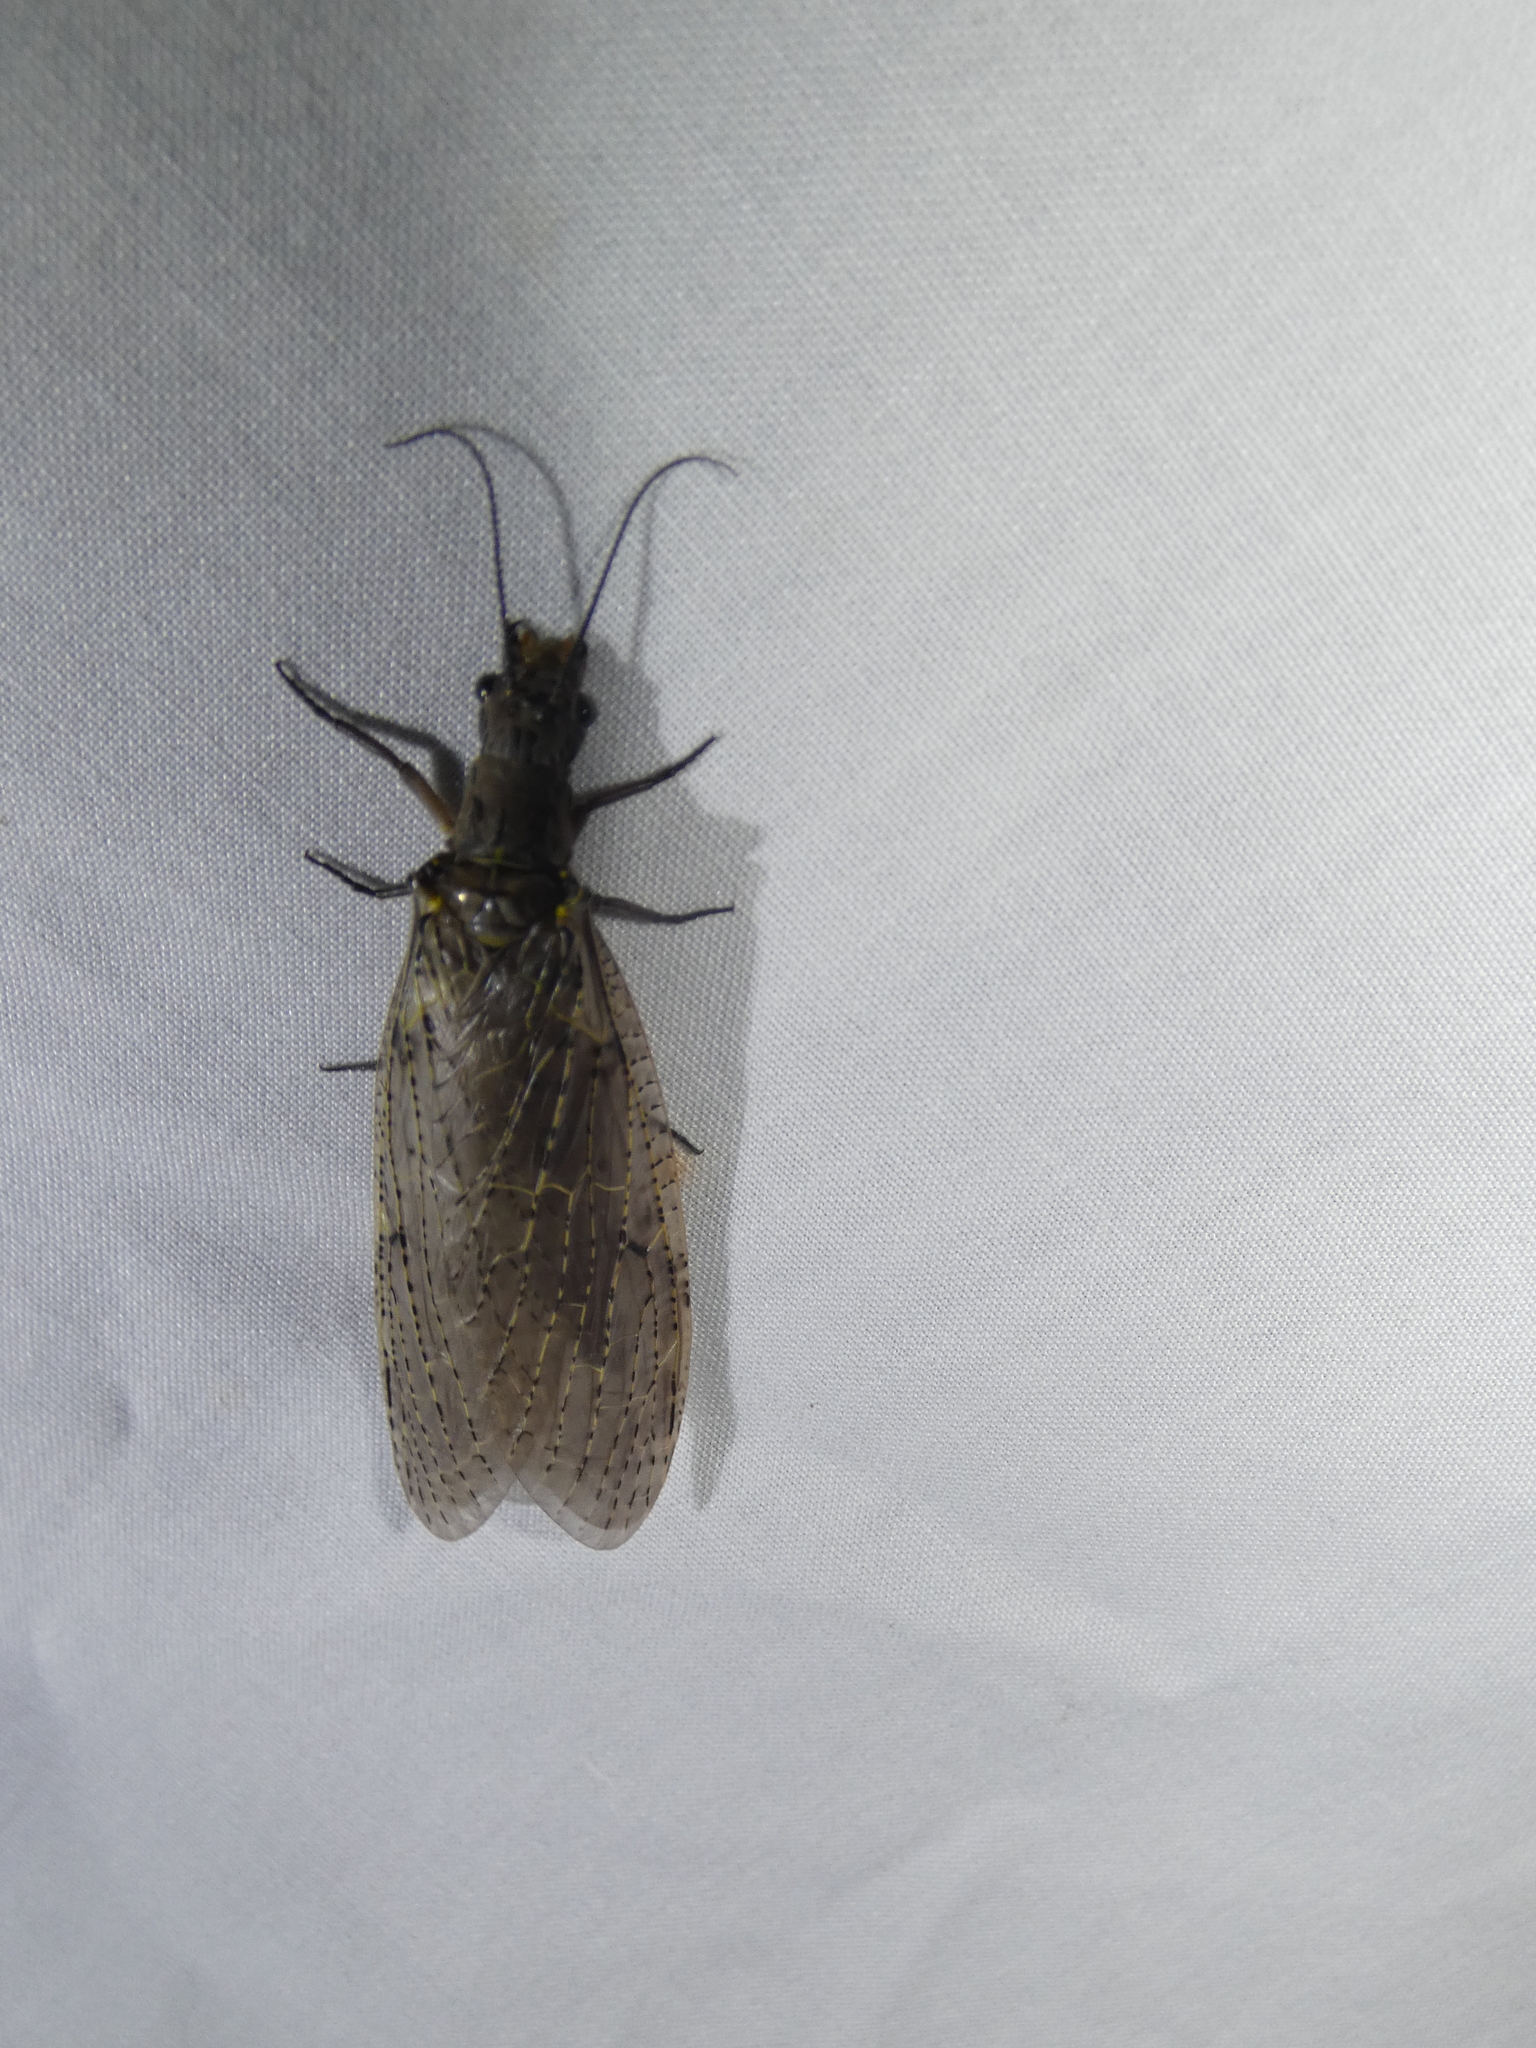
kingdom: Animalia
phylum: Arthropoda
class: Insecta
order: Megaloptera
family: Corydalidae
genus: Chauliodes
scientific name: Chauliodes rastricornis
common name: Spring fishfly
